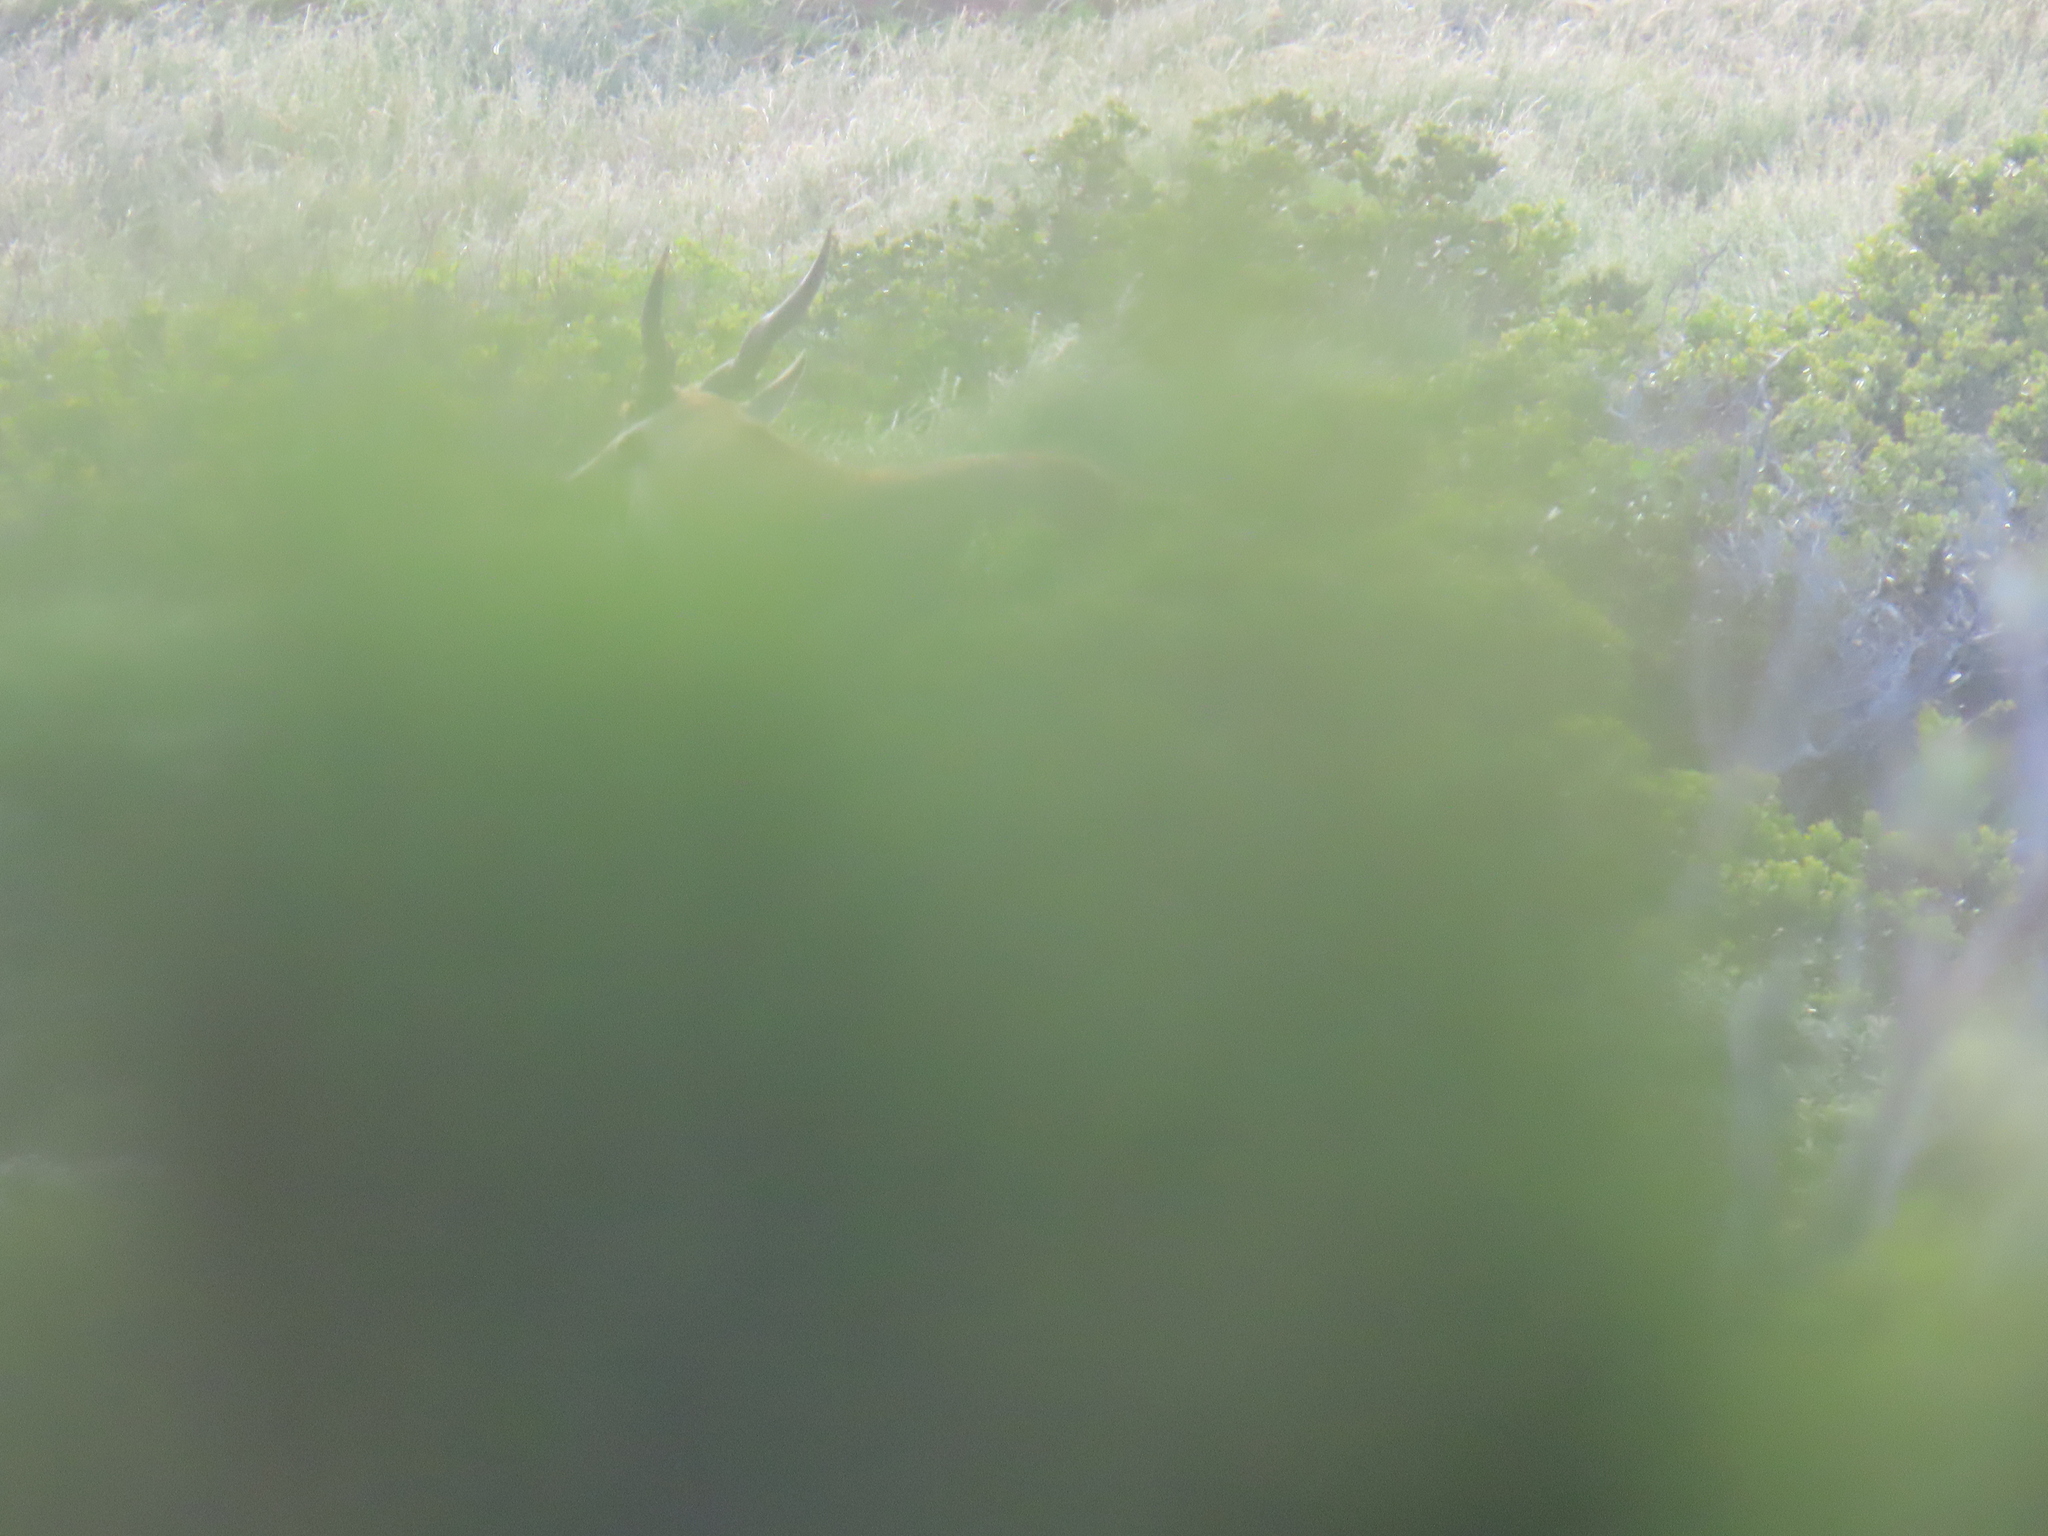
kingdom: Animalia
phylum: Chordata
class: Mammalia
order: Artiodactyla
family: Bovidae
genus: Taurotragus
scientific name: Taurotragus oryx
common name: Common eland
